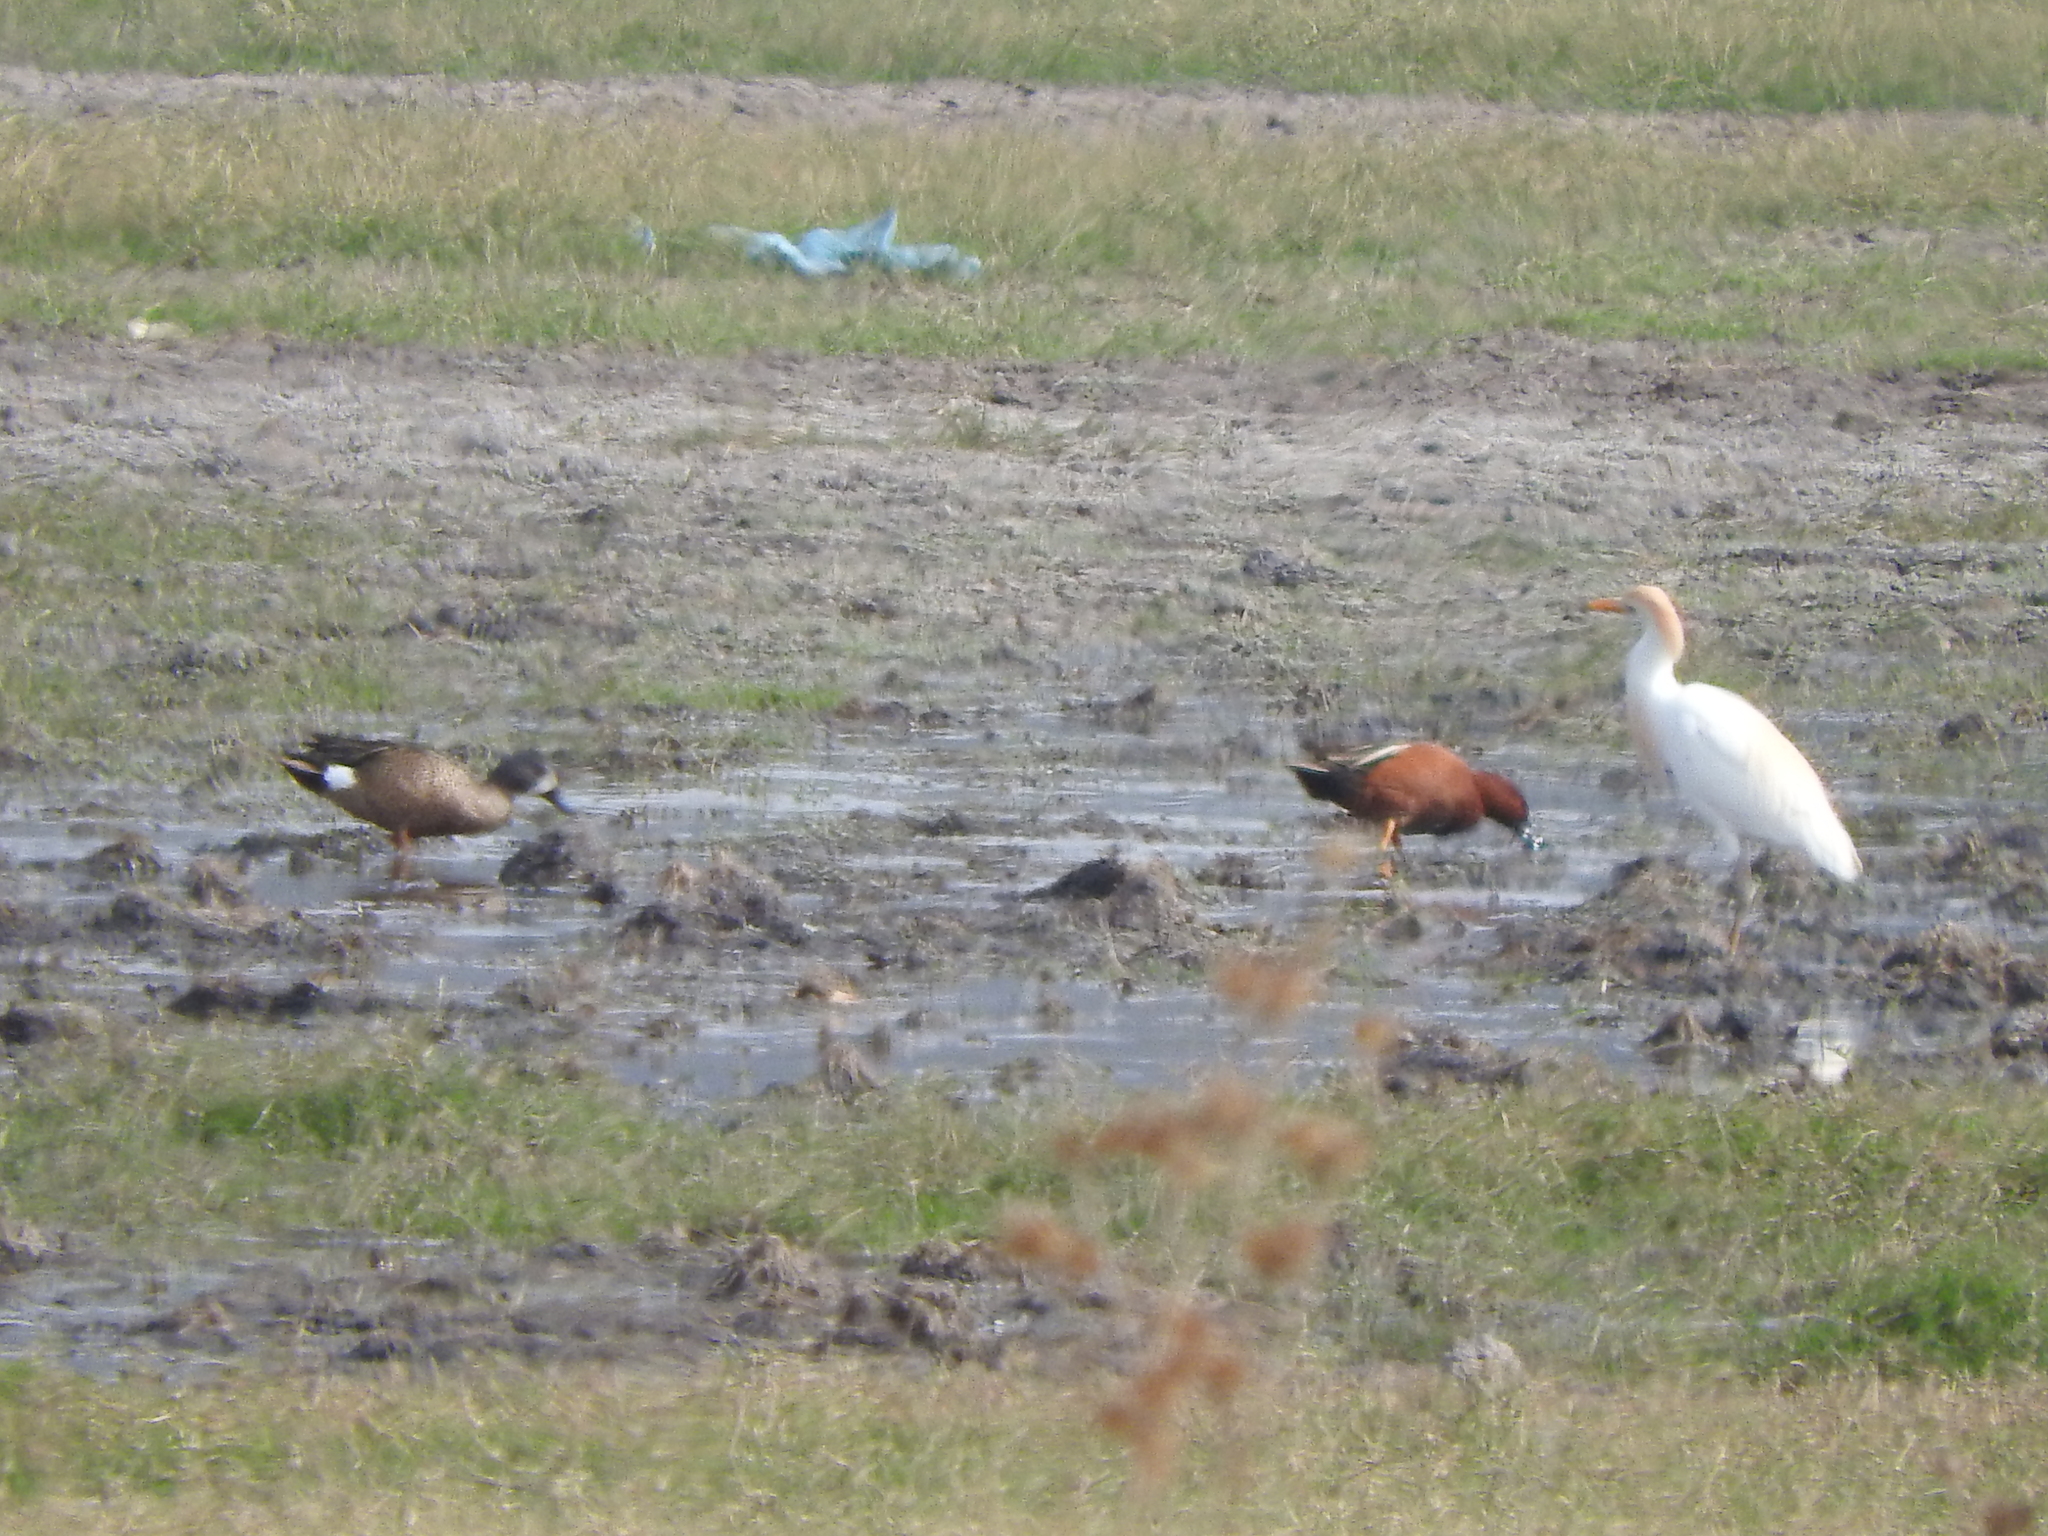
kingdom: Animalia
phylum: Chordata
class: Aves
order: Pelecaniformes
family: Ardeidae
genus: Bubulcus
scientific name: Bubulcus ibis
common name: Cattle egret
